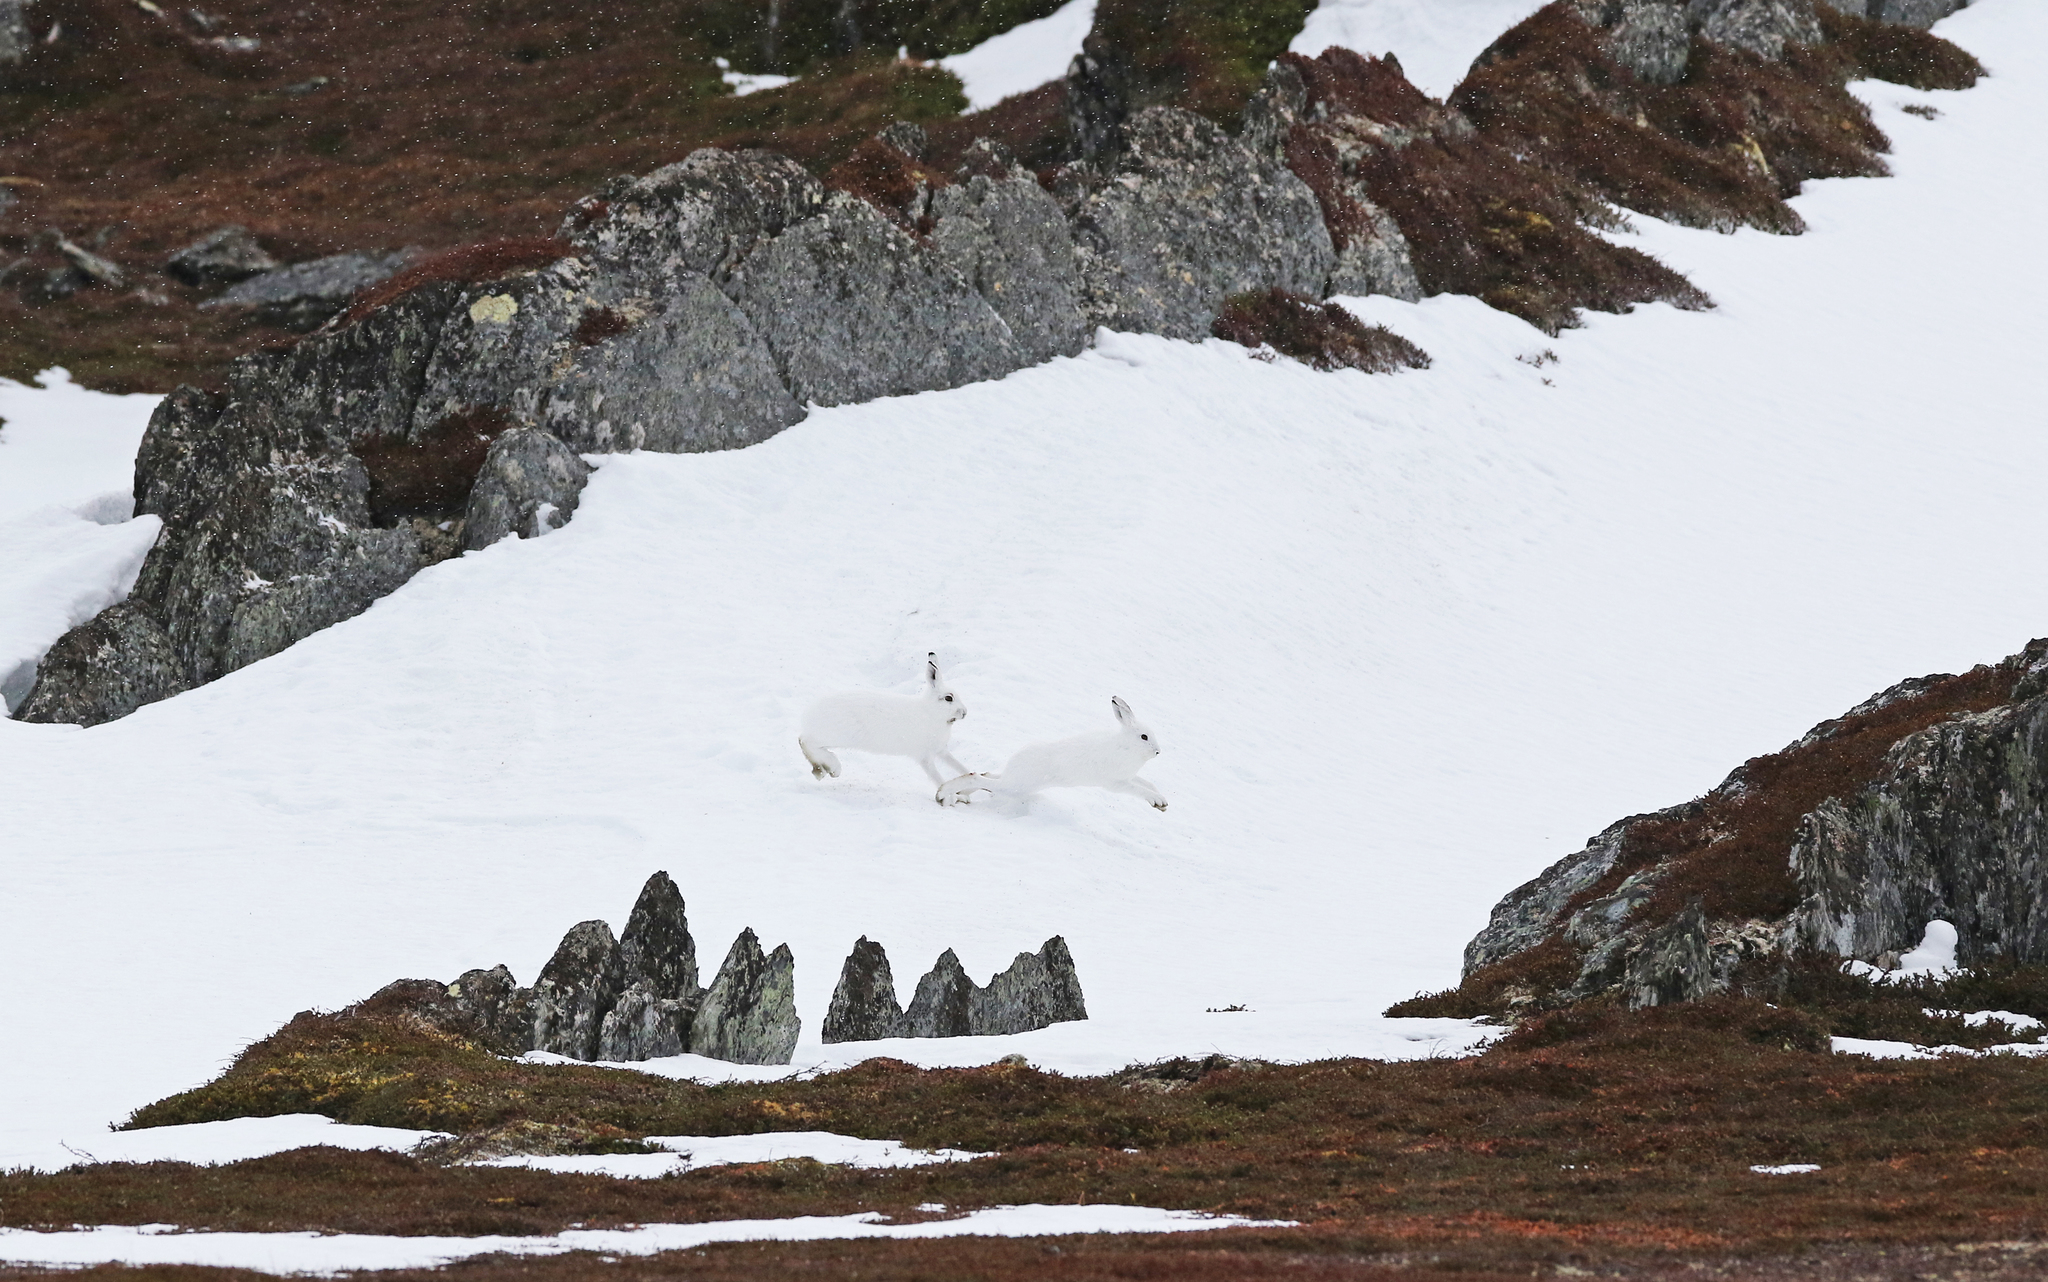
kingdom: Animalia
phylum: Chordata
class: Mammalia
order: Lagomorpha
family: Leporidae
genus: Lepus
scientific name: Lepus timidus
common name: Mountain hare
